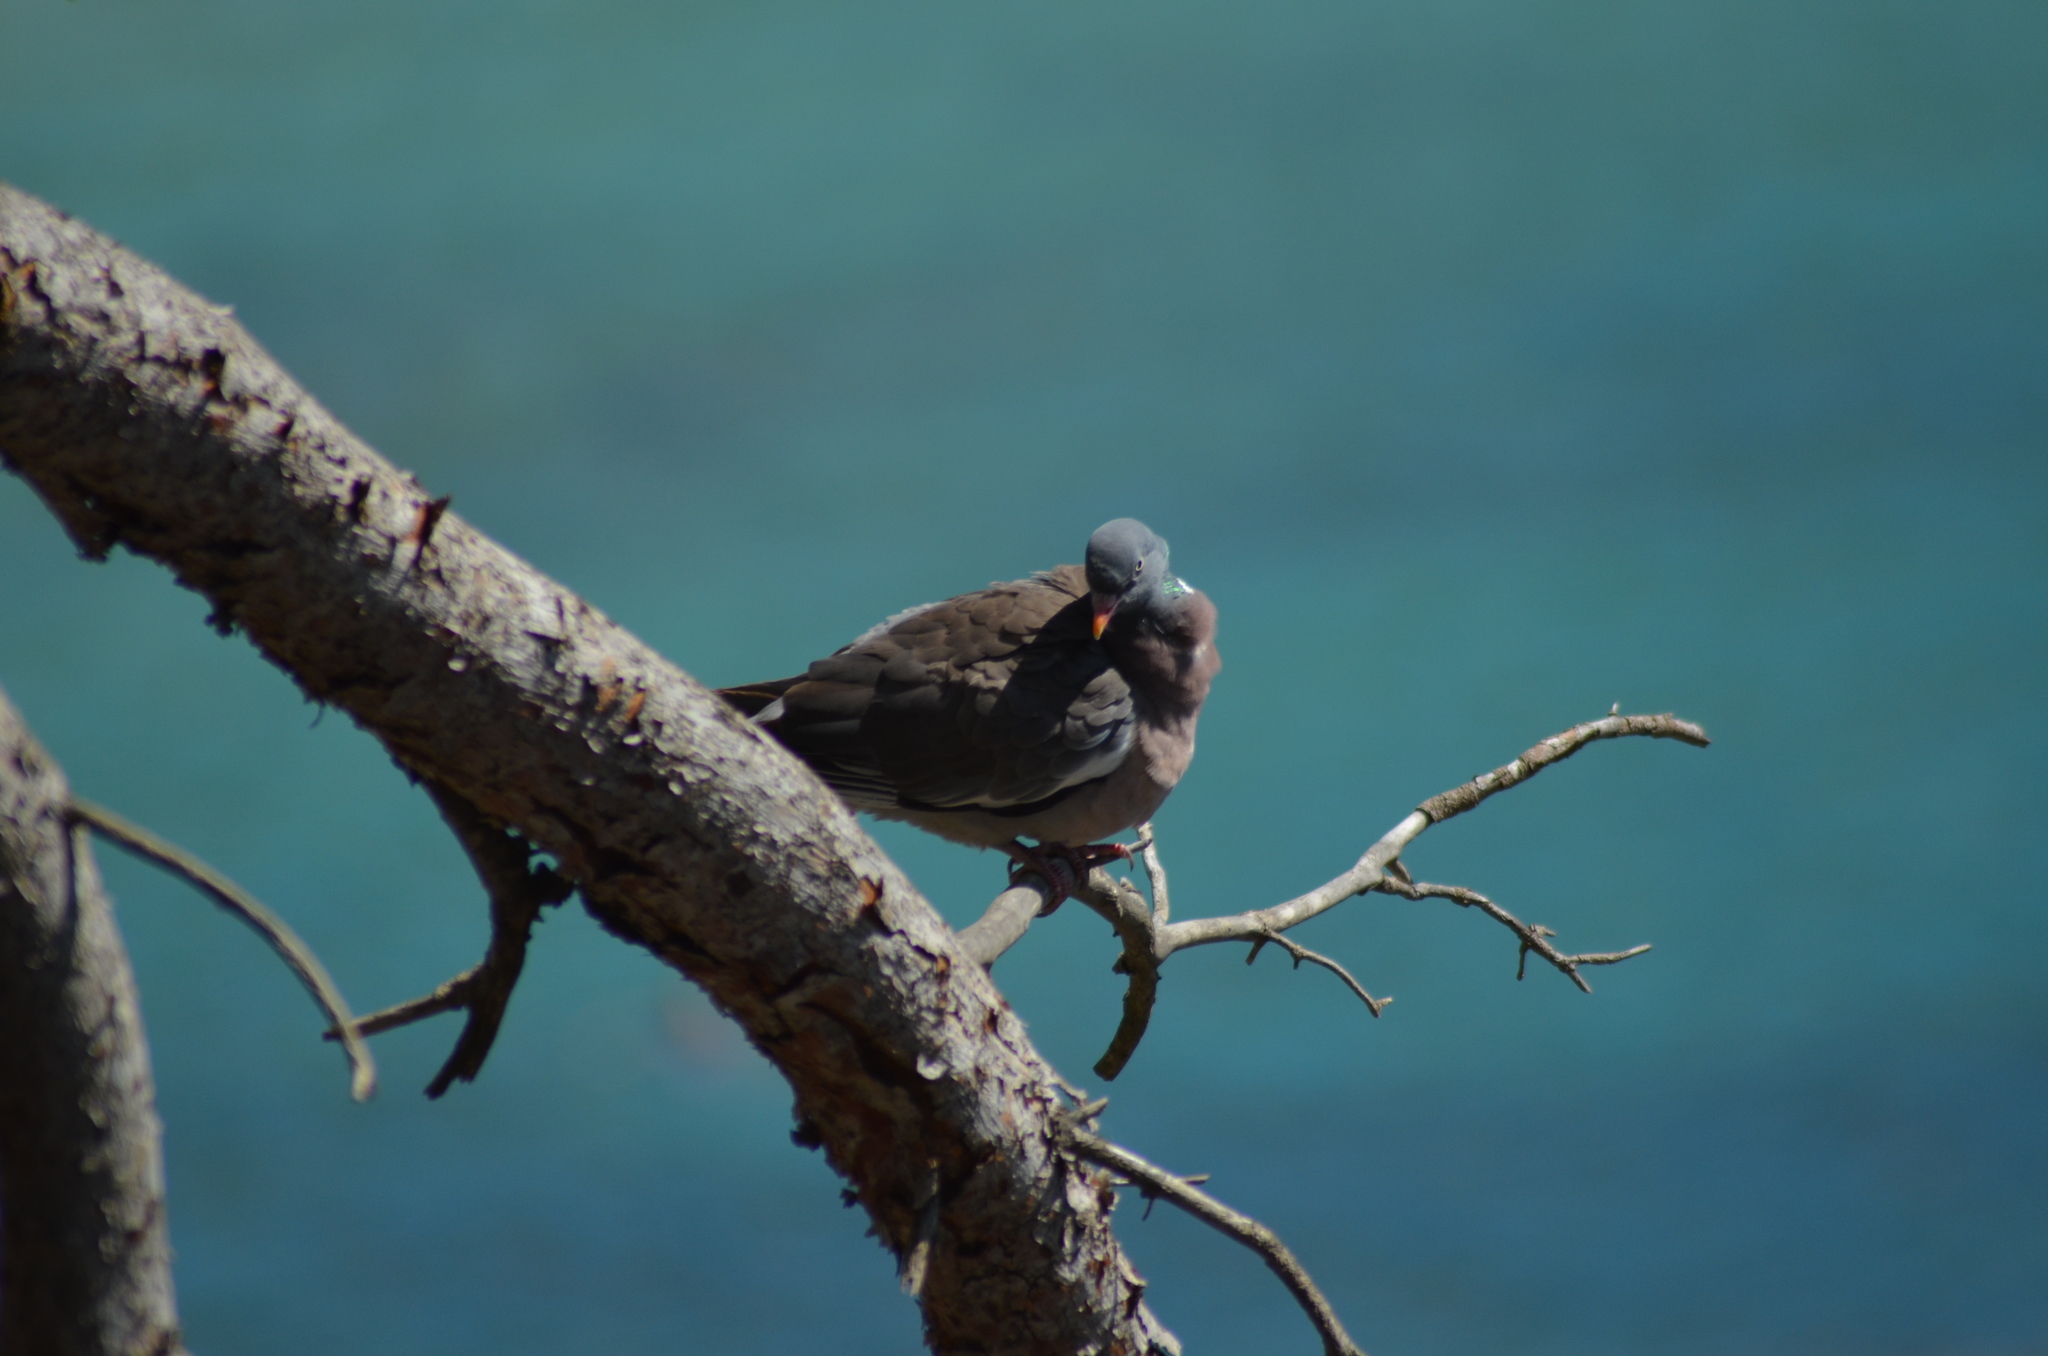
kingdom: Animalia
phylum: Chordata
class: Aves
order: Columbiformes
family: Columbidae
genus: Columba
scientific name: Columba palumbus
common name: Common wood pigeon
